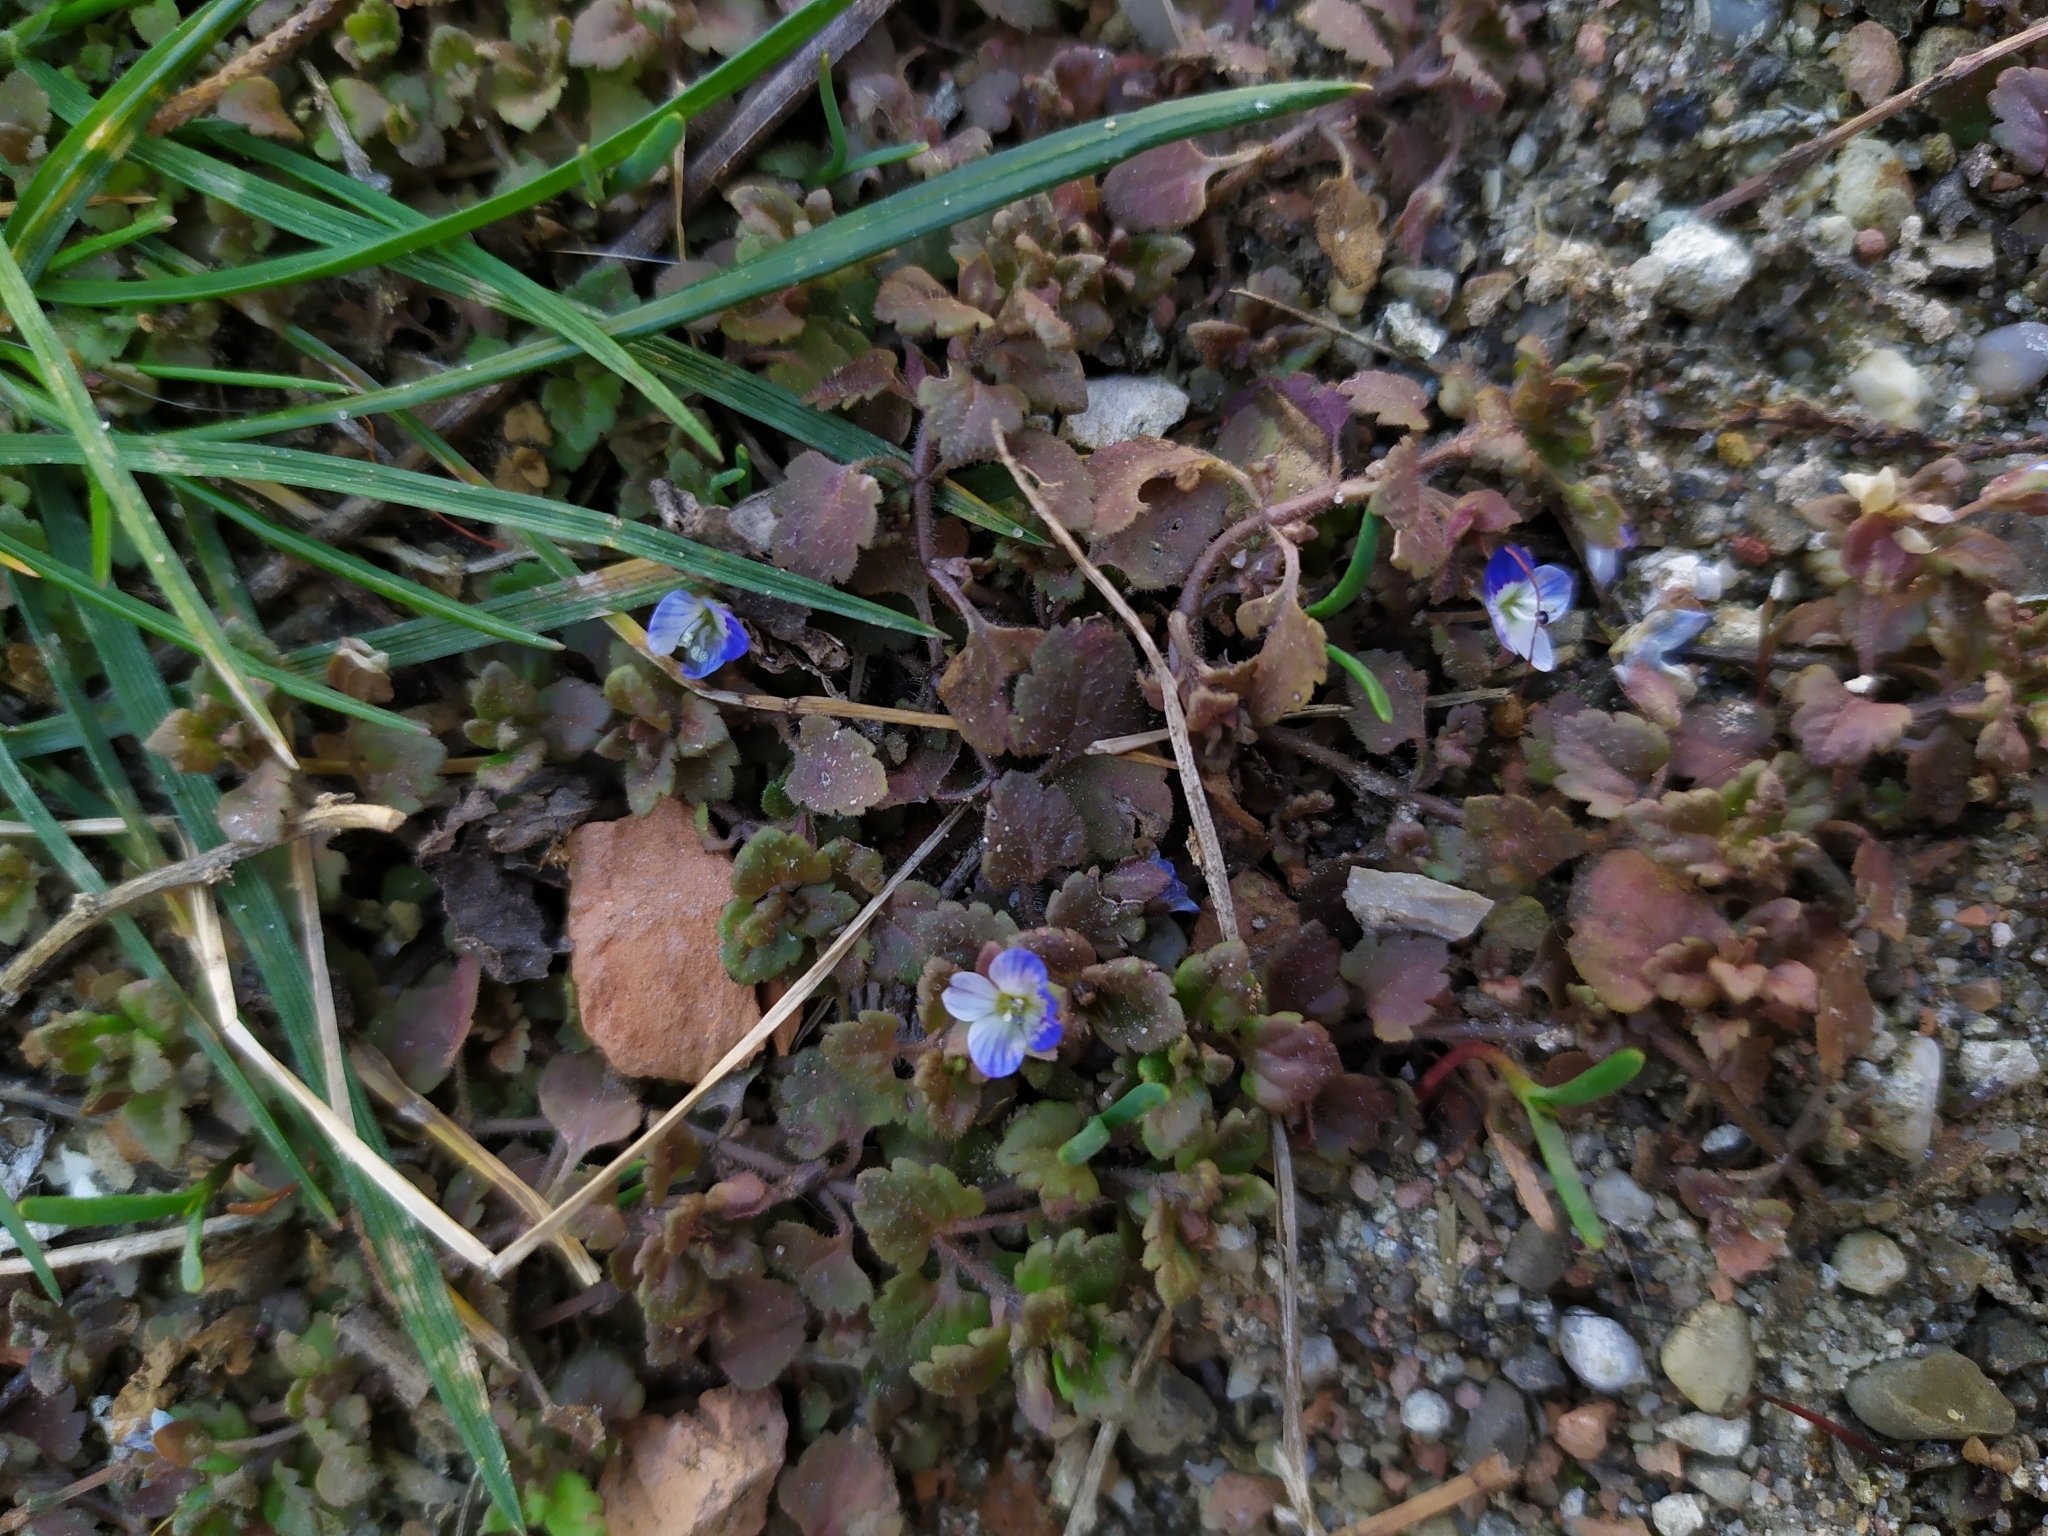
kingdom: Plantae
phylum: Tracheophyta
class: Magnoliopsida
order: Lamiales
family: Plantaginaceae
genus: Veronica
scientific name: Veronica polita
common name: Grey field-speedwell
